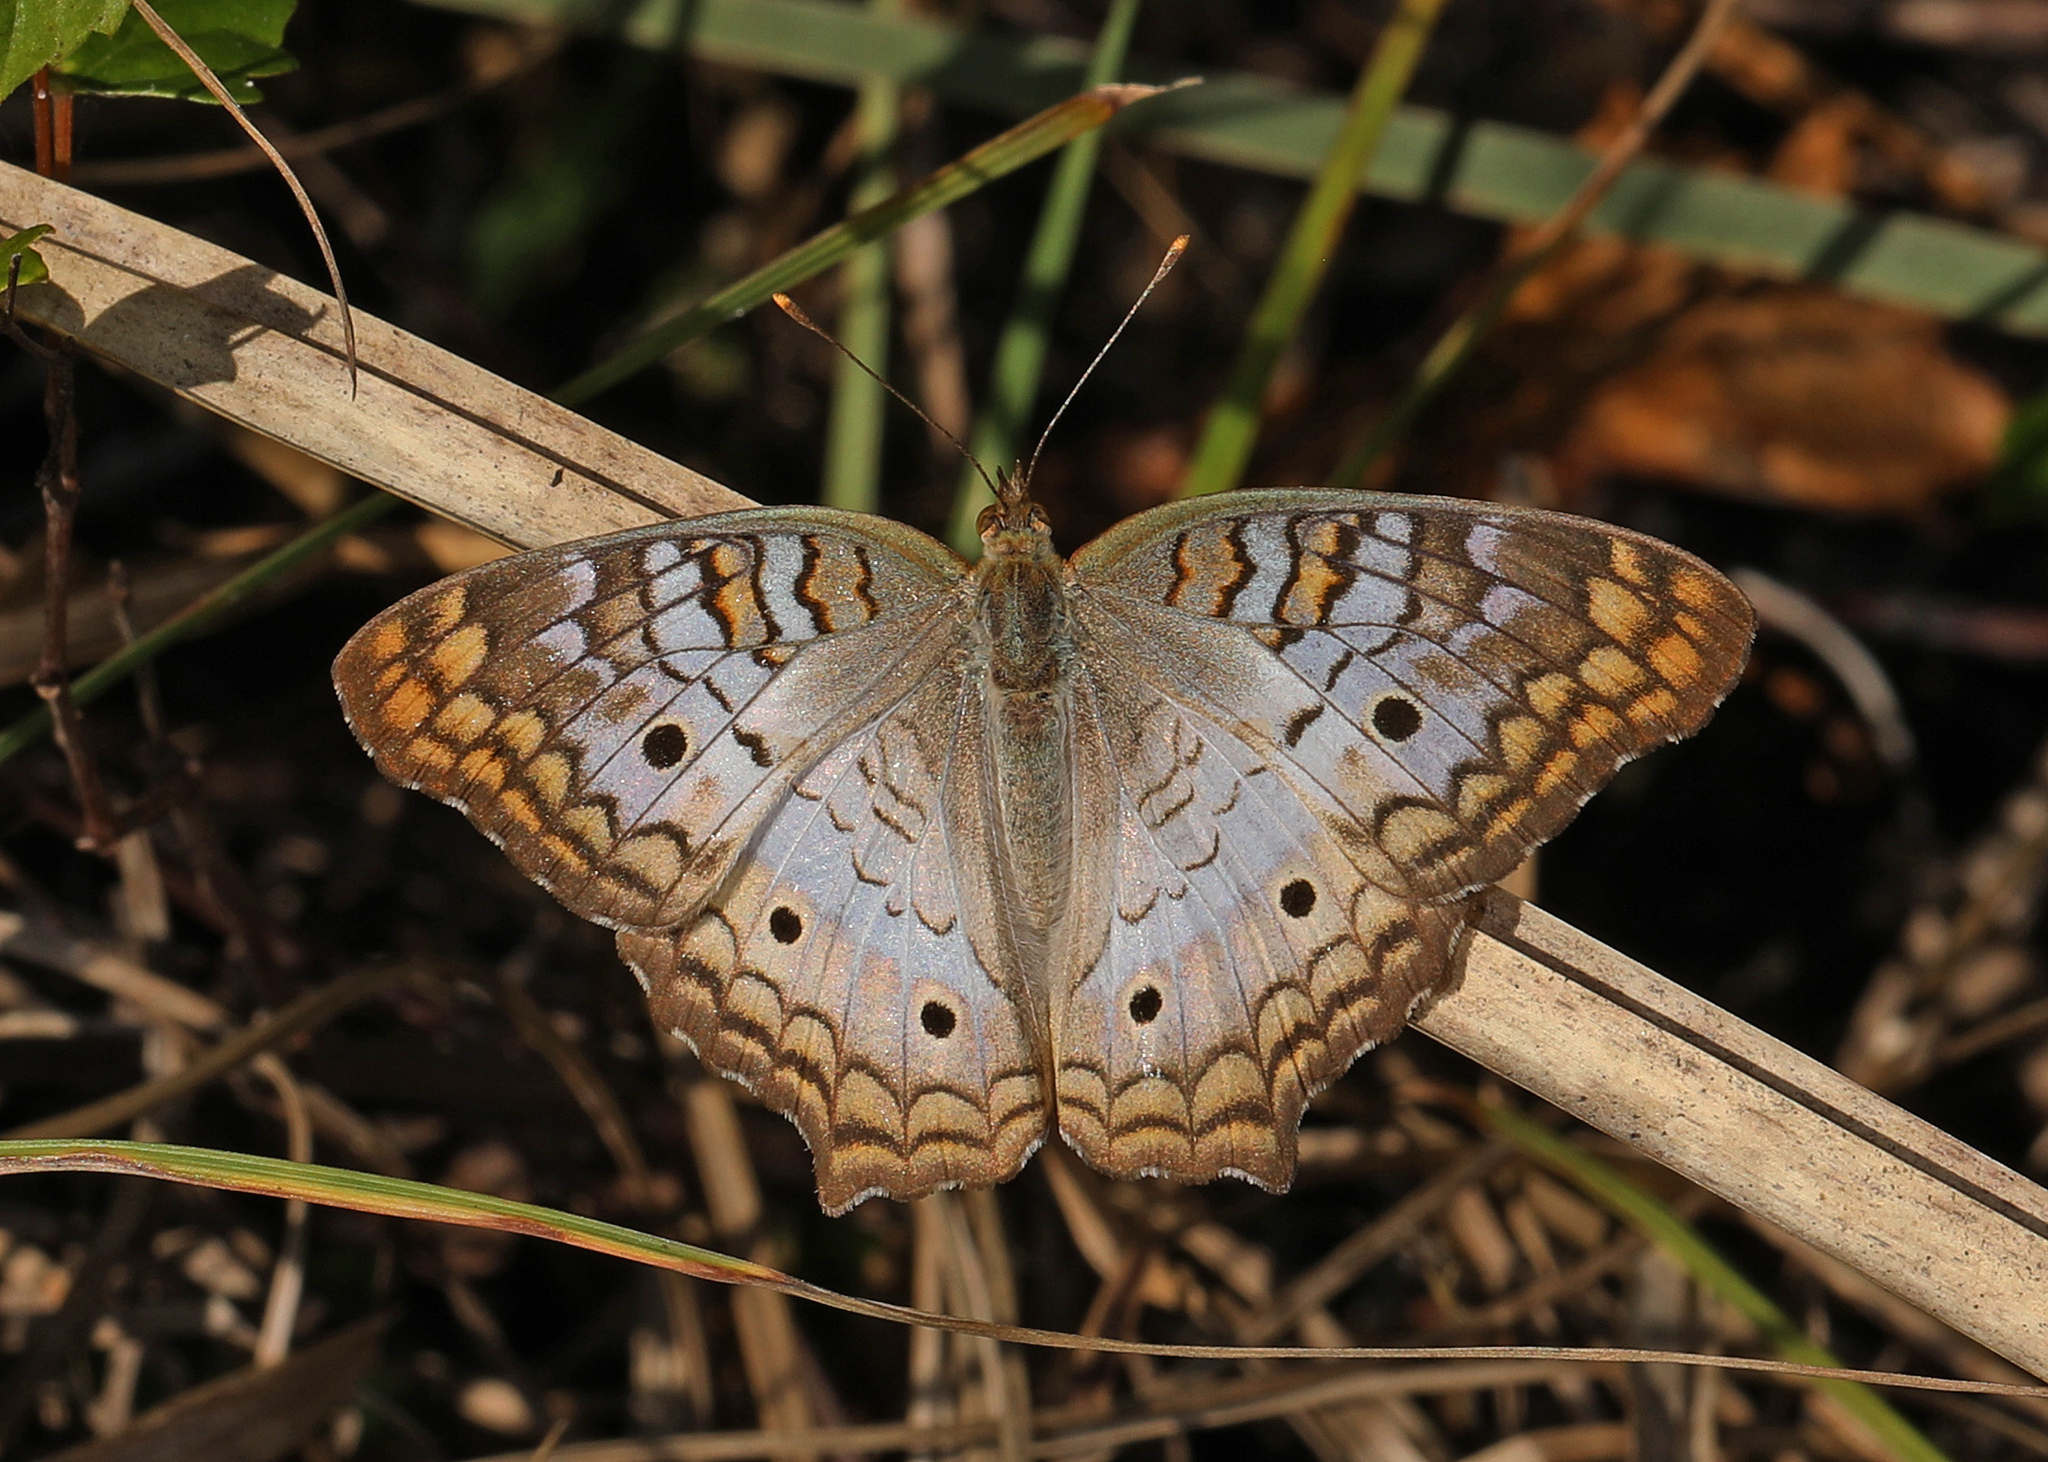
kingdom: Animalia
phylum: Arthropoda
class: Insecta
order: Lepidoptera
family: Nymphalidae
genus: Anartia
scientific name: Anartia jatrophae
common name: White peacock
